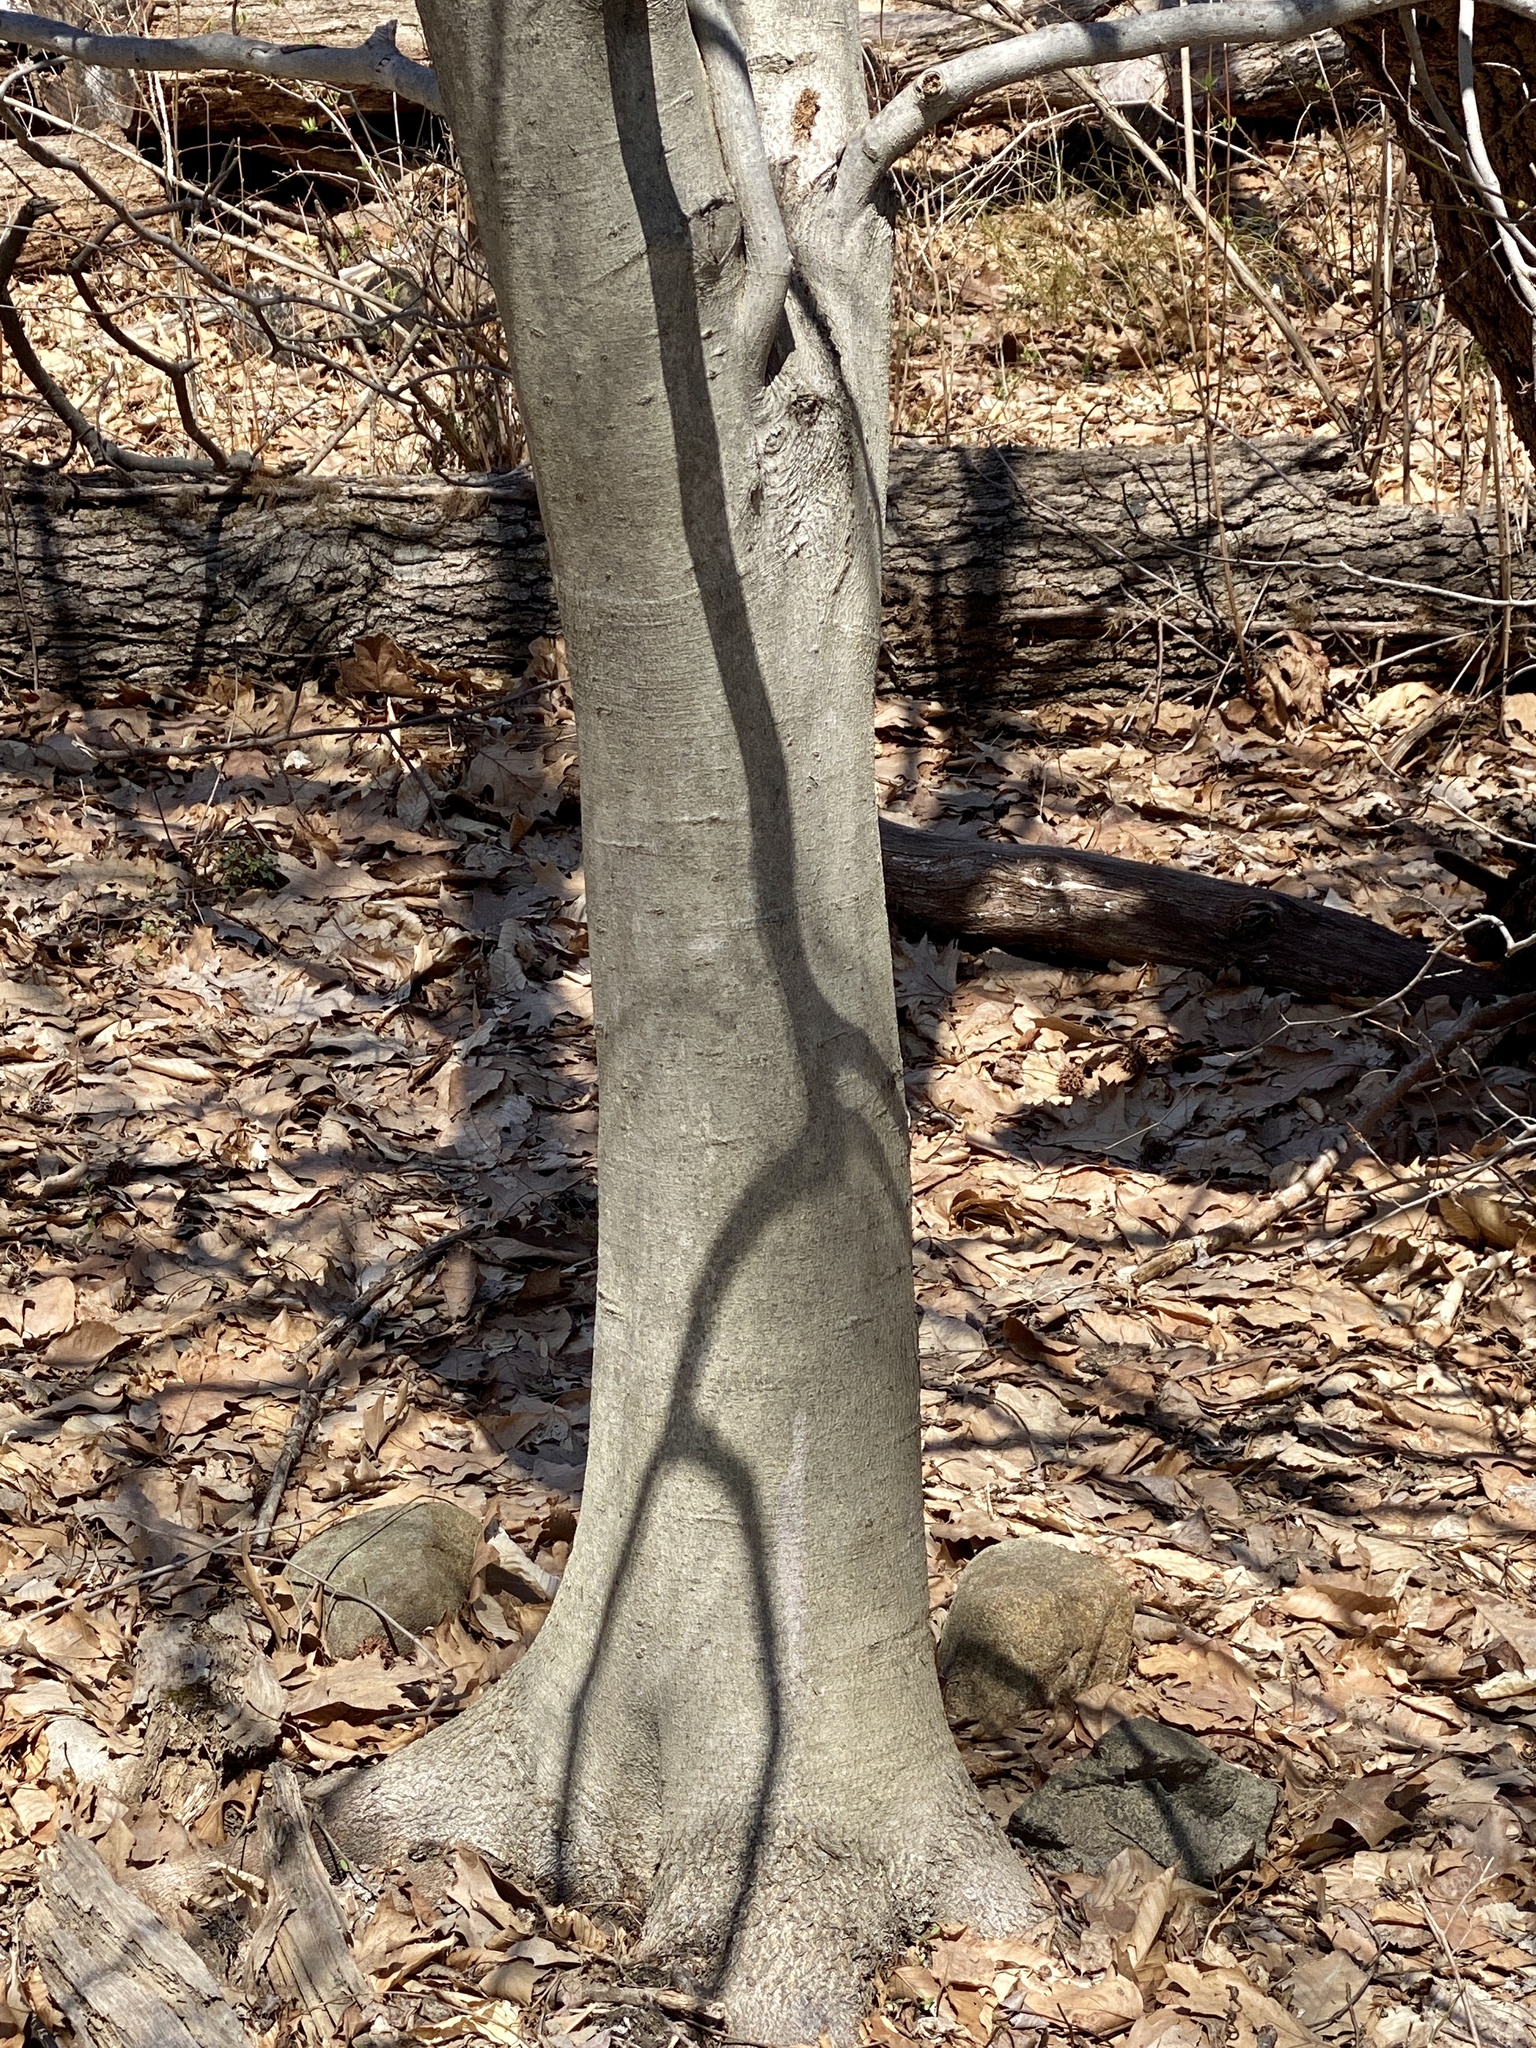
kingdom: Plantae
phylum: Tracheophyta
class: Magnoliopsida
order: Fagales
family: Fagaceae
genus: Fagus
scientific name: Fagus grandifolia
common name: American beech
